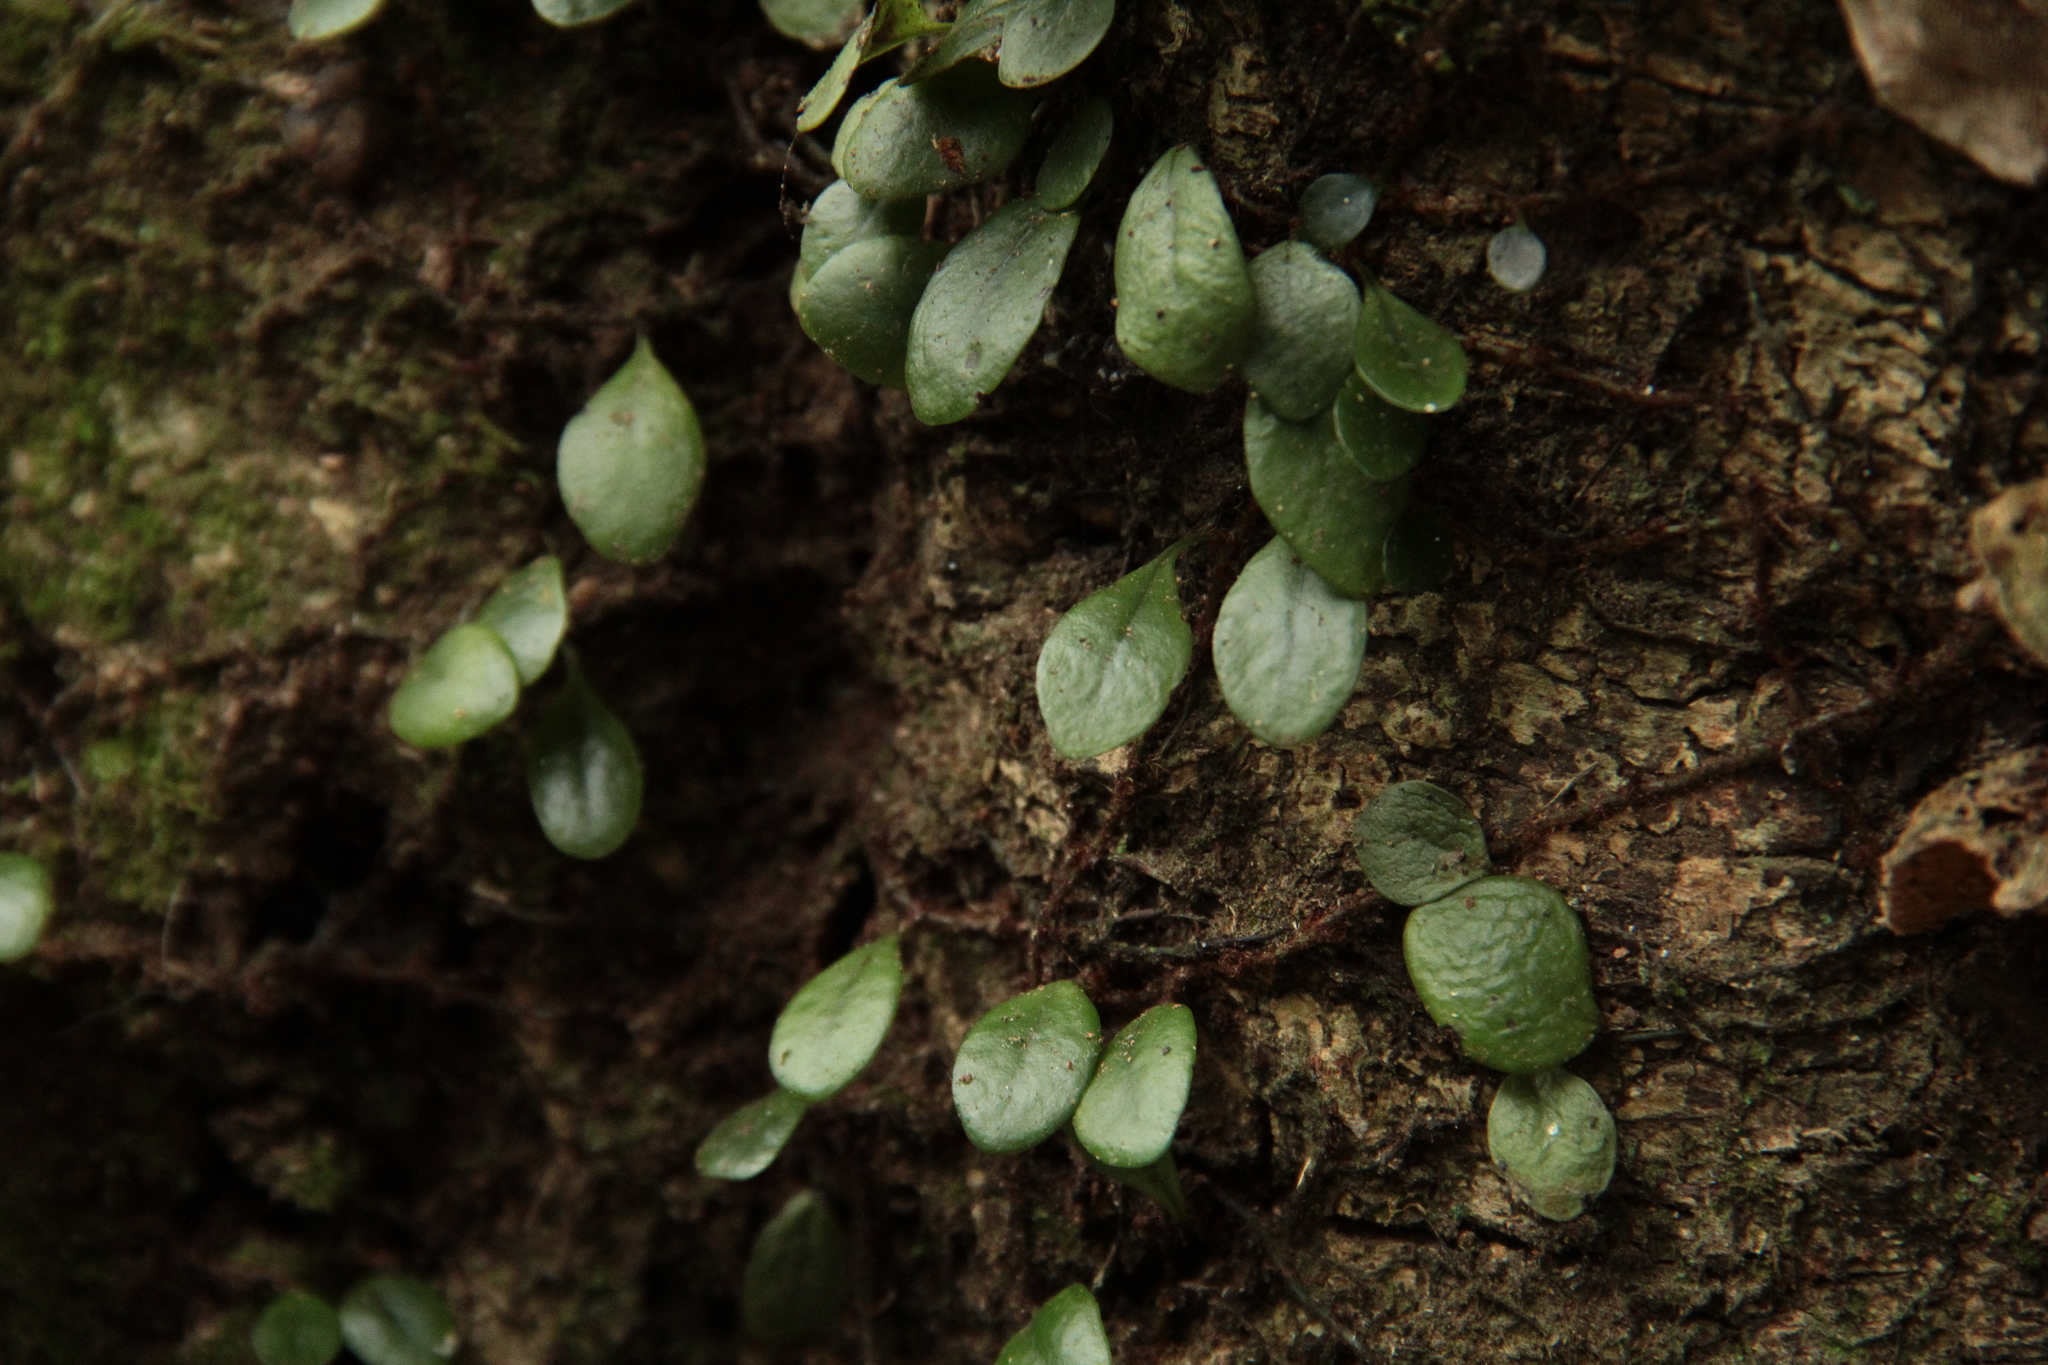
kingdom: Plantae
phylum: Tracheophyta
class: Polypodiopsida
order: Polypodiales
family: Polypodiaceae
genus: Lepisorus
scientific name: Lepisorus microphyllus
